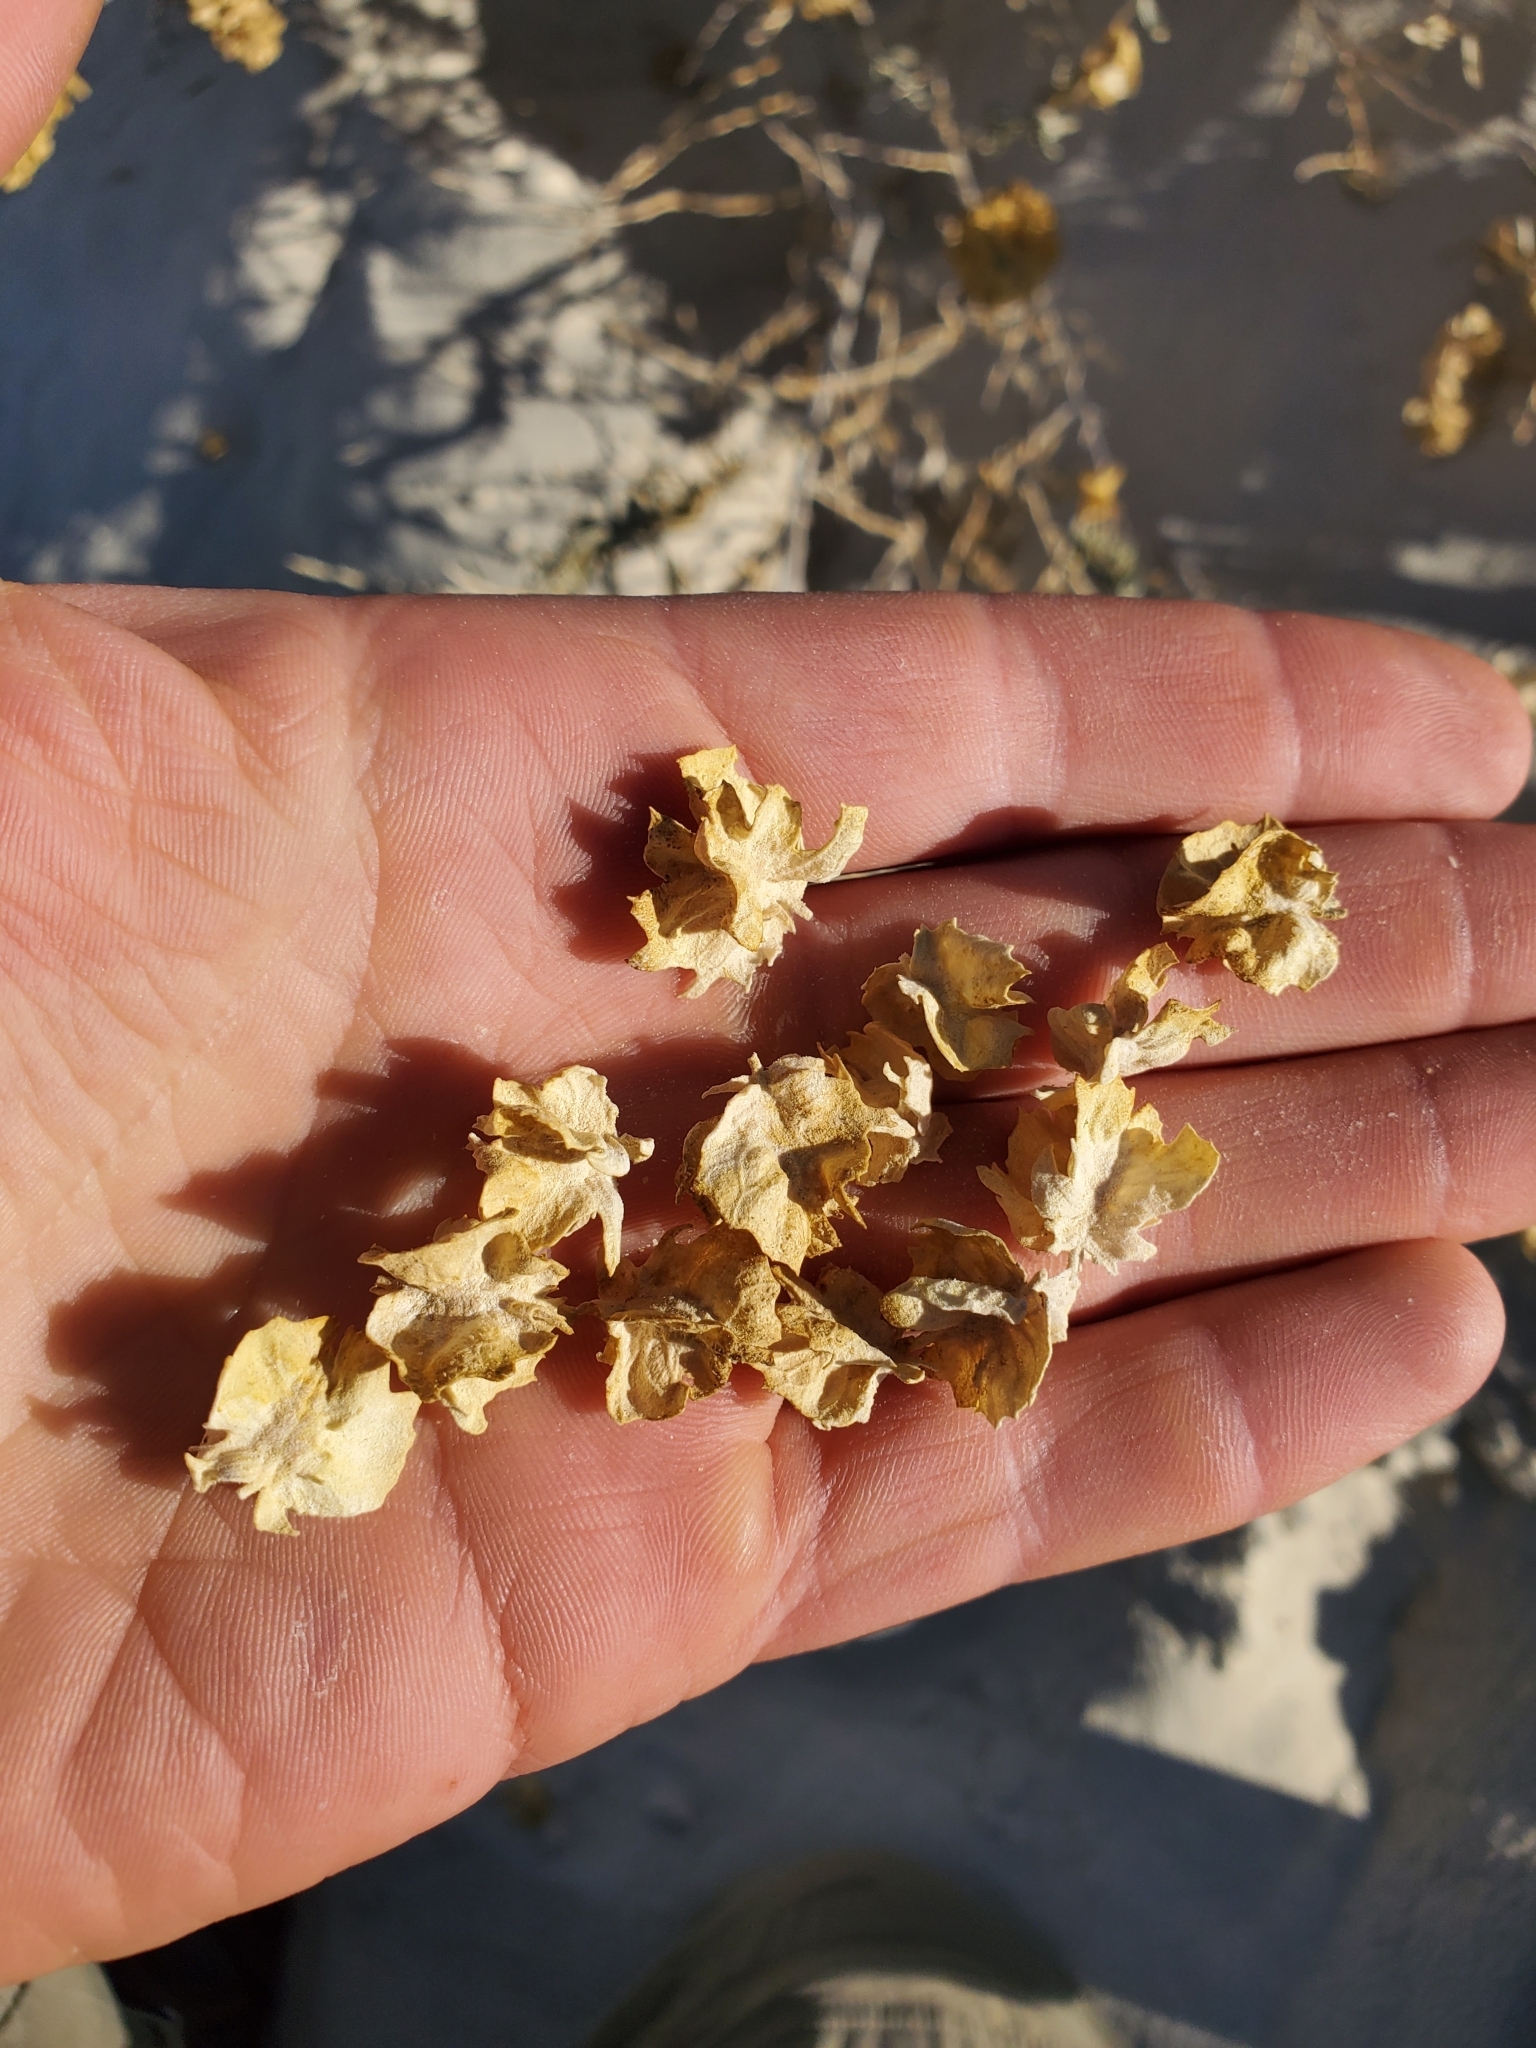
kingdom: Plantae
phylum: Tracheophyta
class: Magnoliopsida
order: Caryophyllales
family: Amaranthaceae
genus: Atriplex
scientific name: Atriplex canescens
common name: Four-wing saltbush
